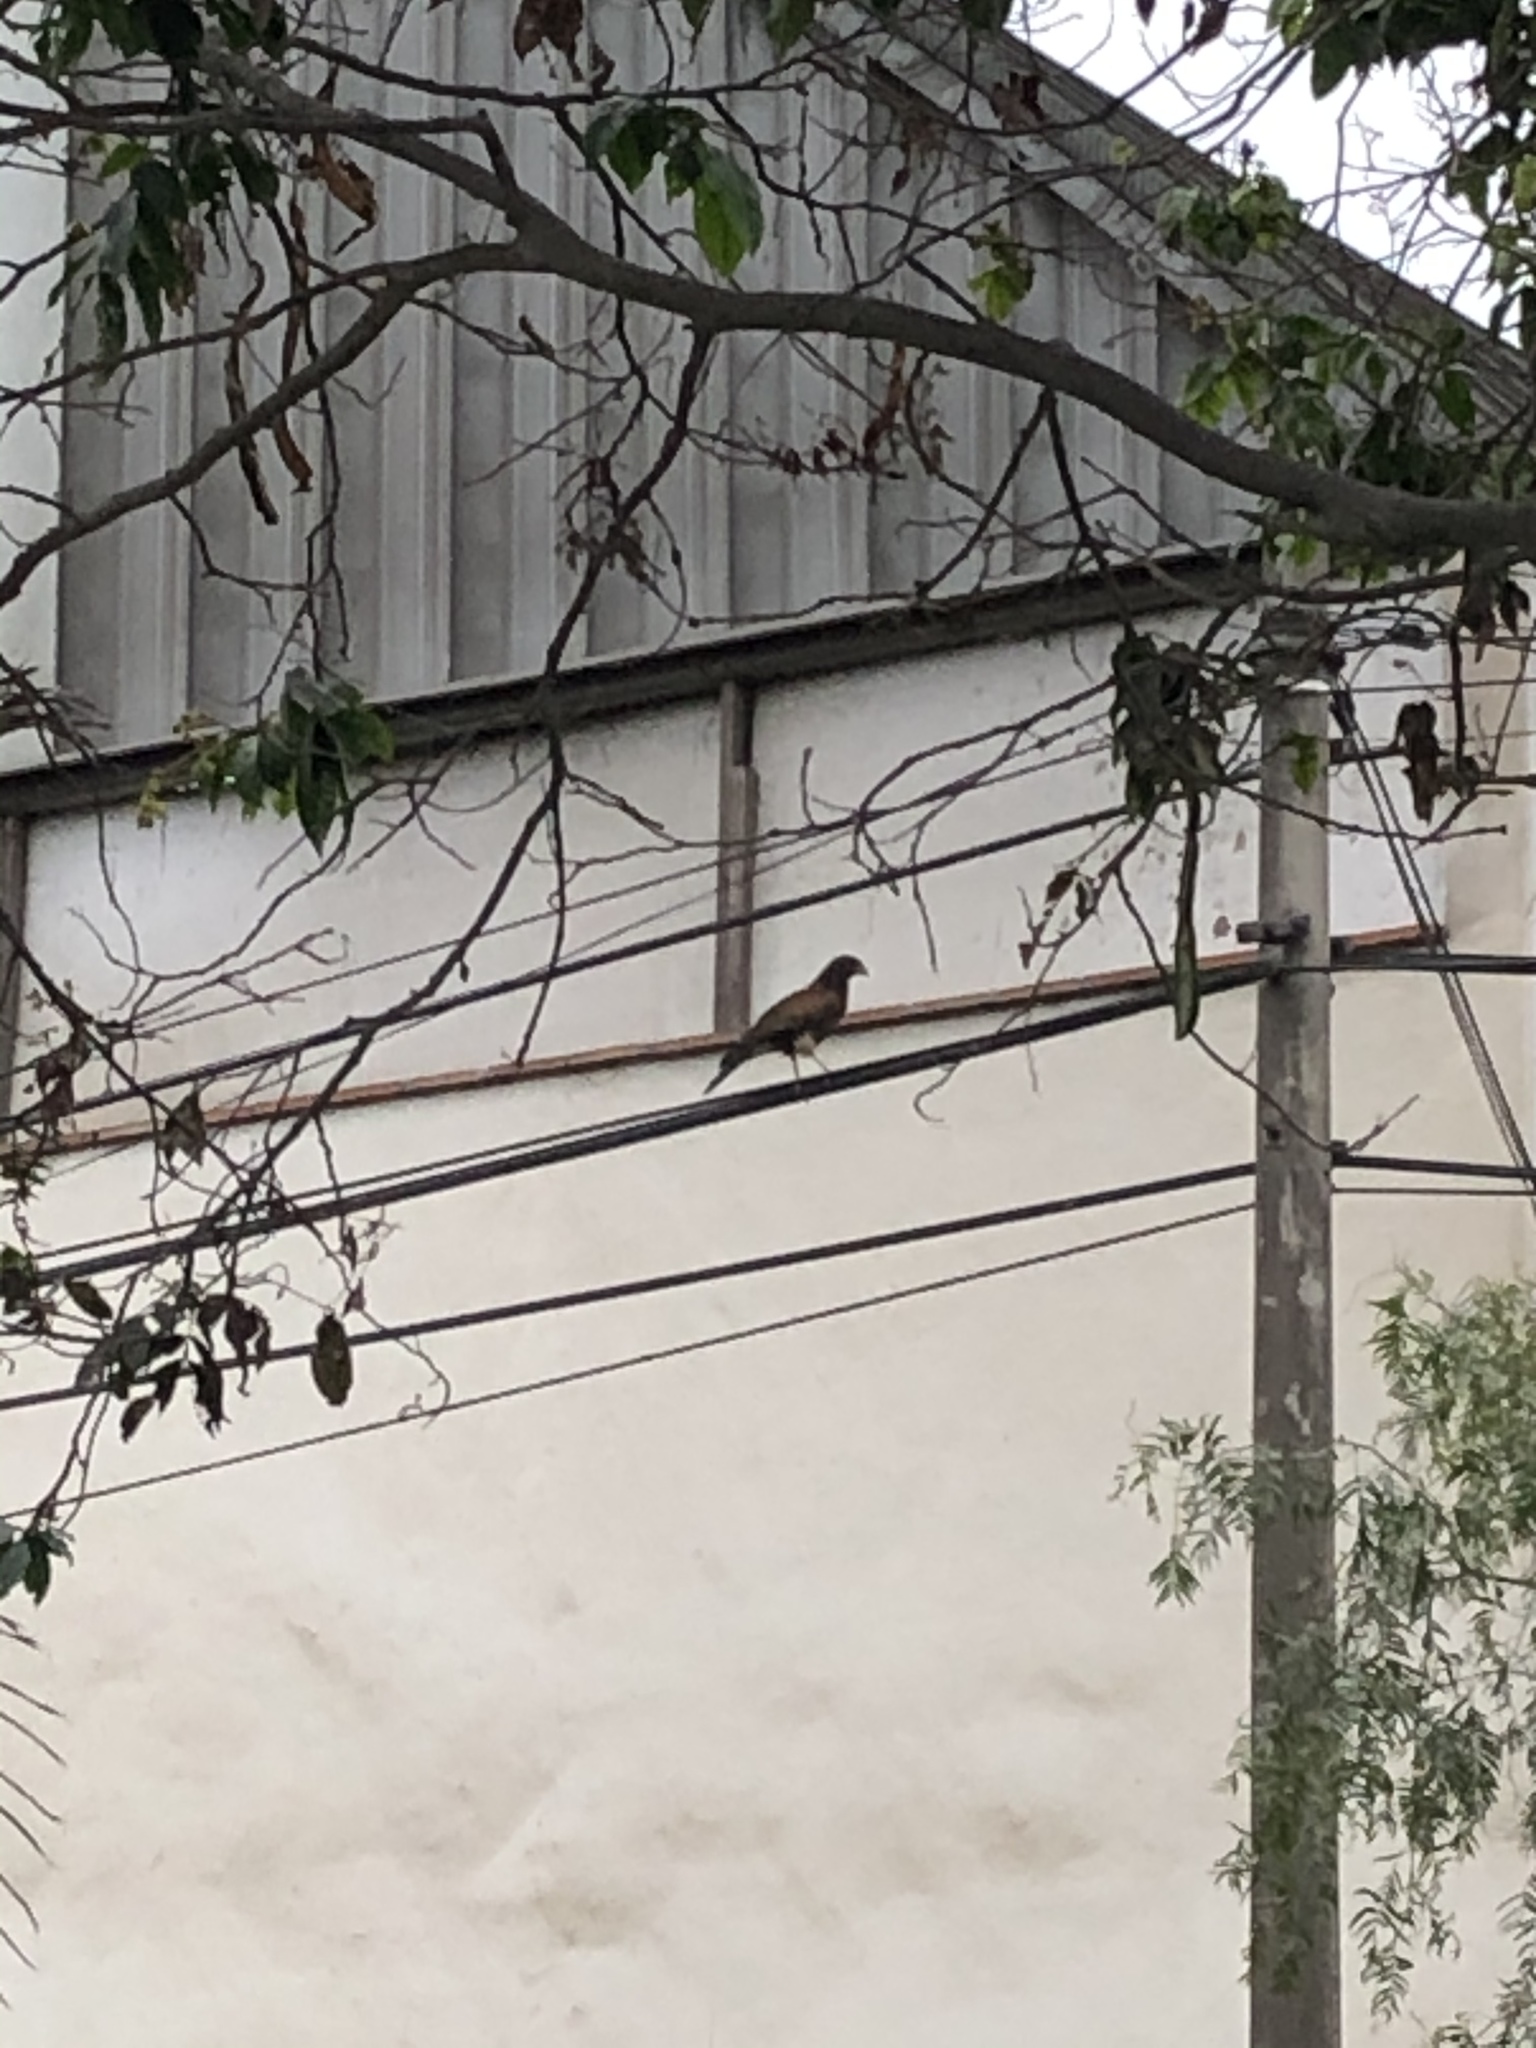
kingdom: Animalia
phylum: Chordata
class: Aves
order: Accipitriformes
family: Accipitridae
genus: Parabuteo
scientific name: Parabuteo unicinctus
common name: Harris's hawk
